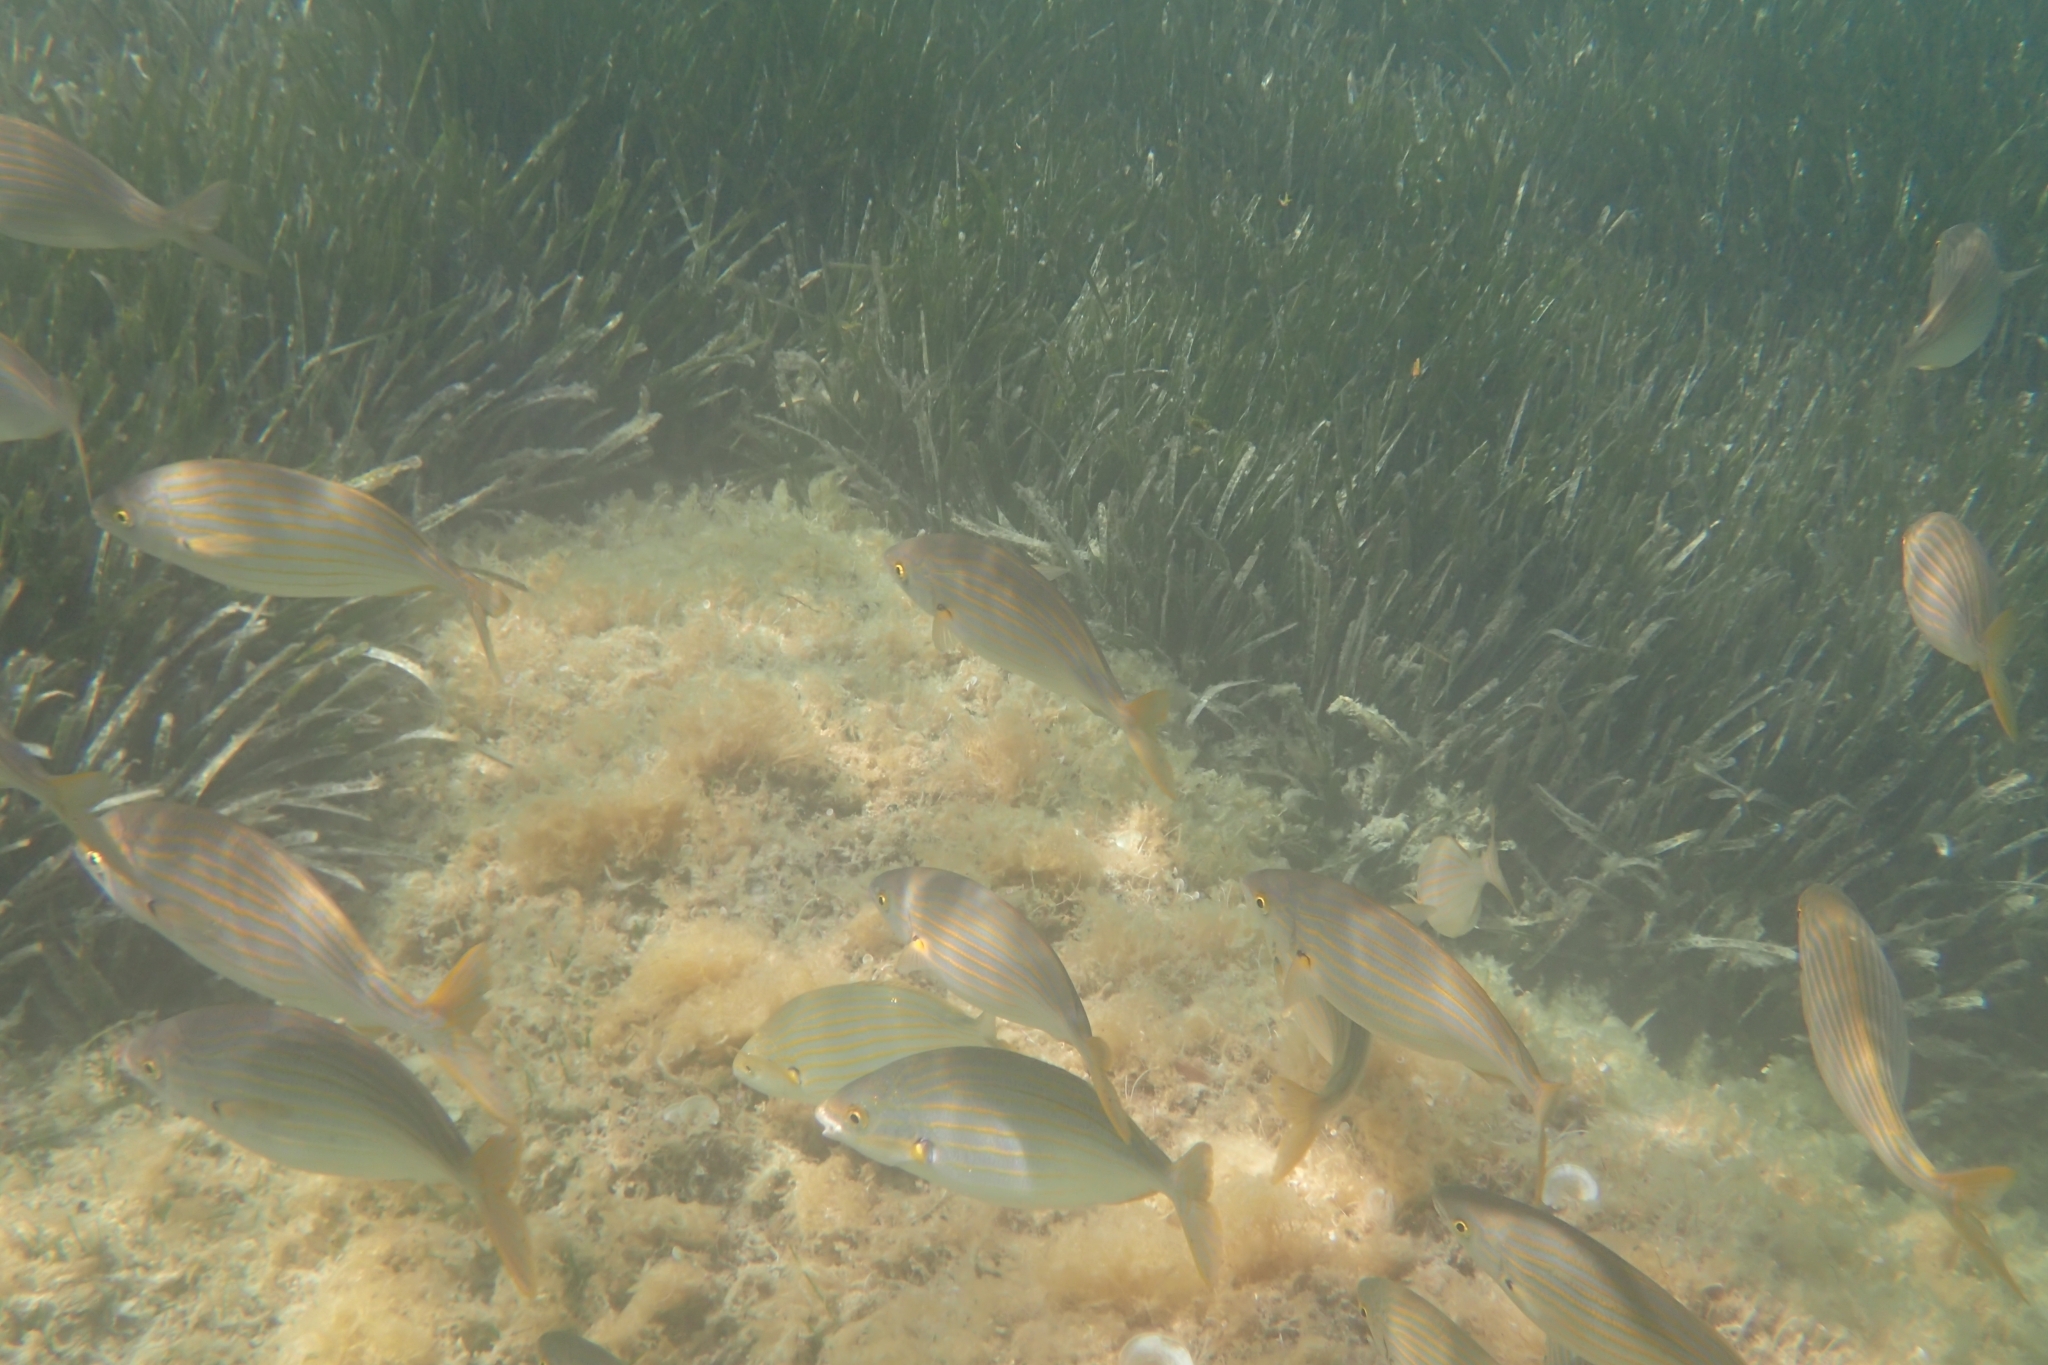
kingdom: Animalia
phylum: Chordata
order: Perciformes
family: Sparidae
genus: Sarpa
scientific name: Sarpa salpa
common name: Salema
